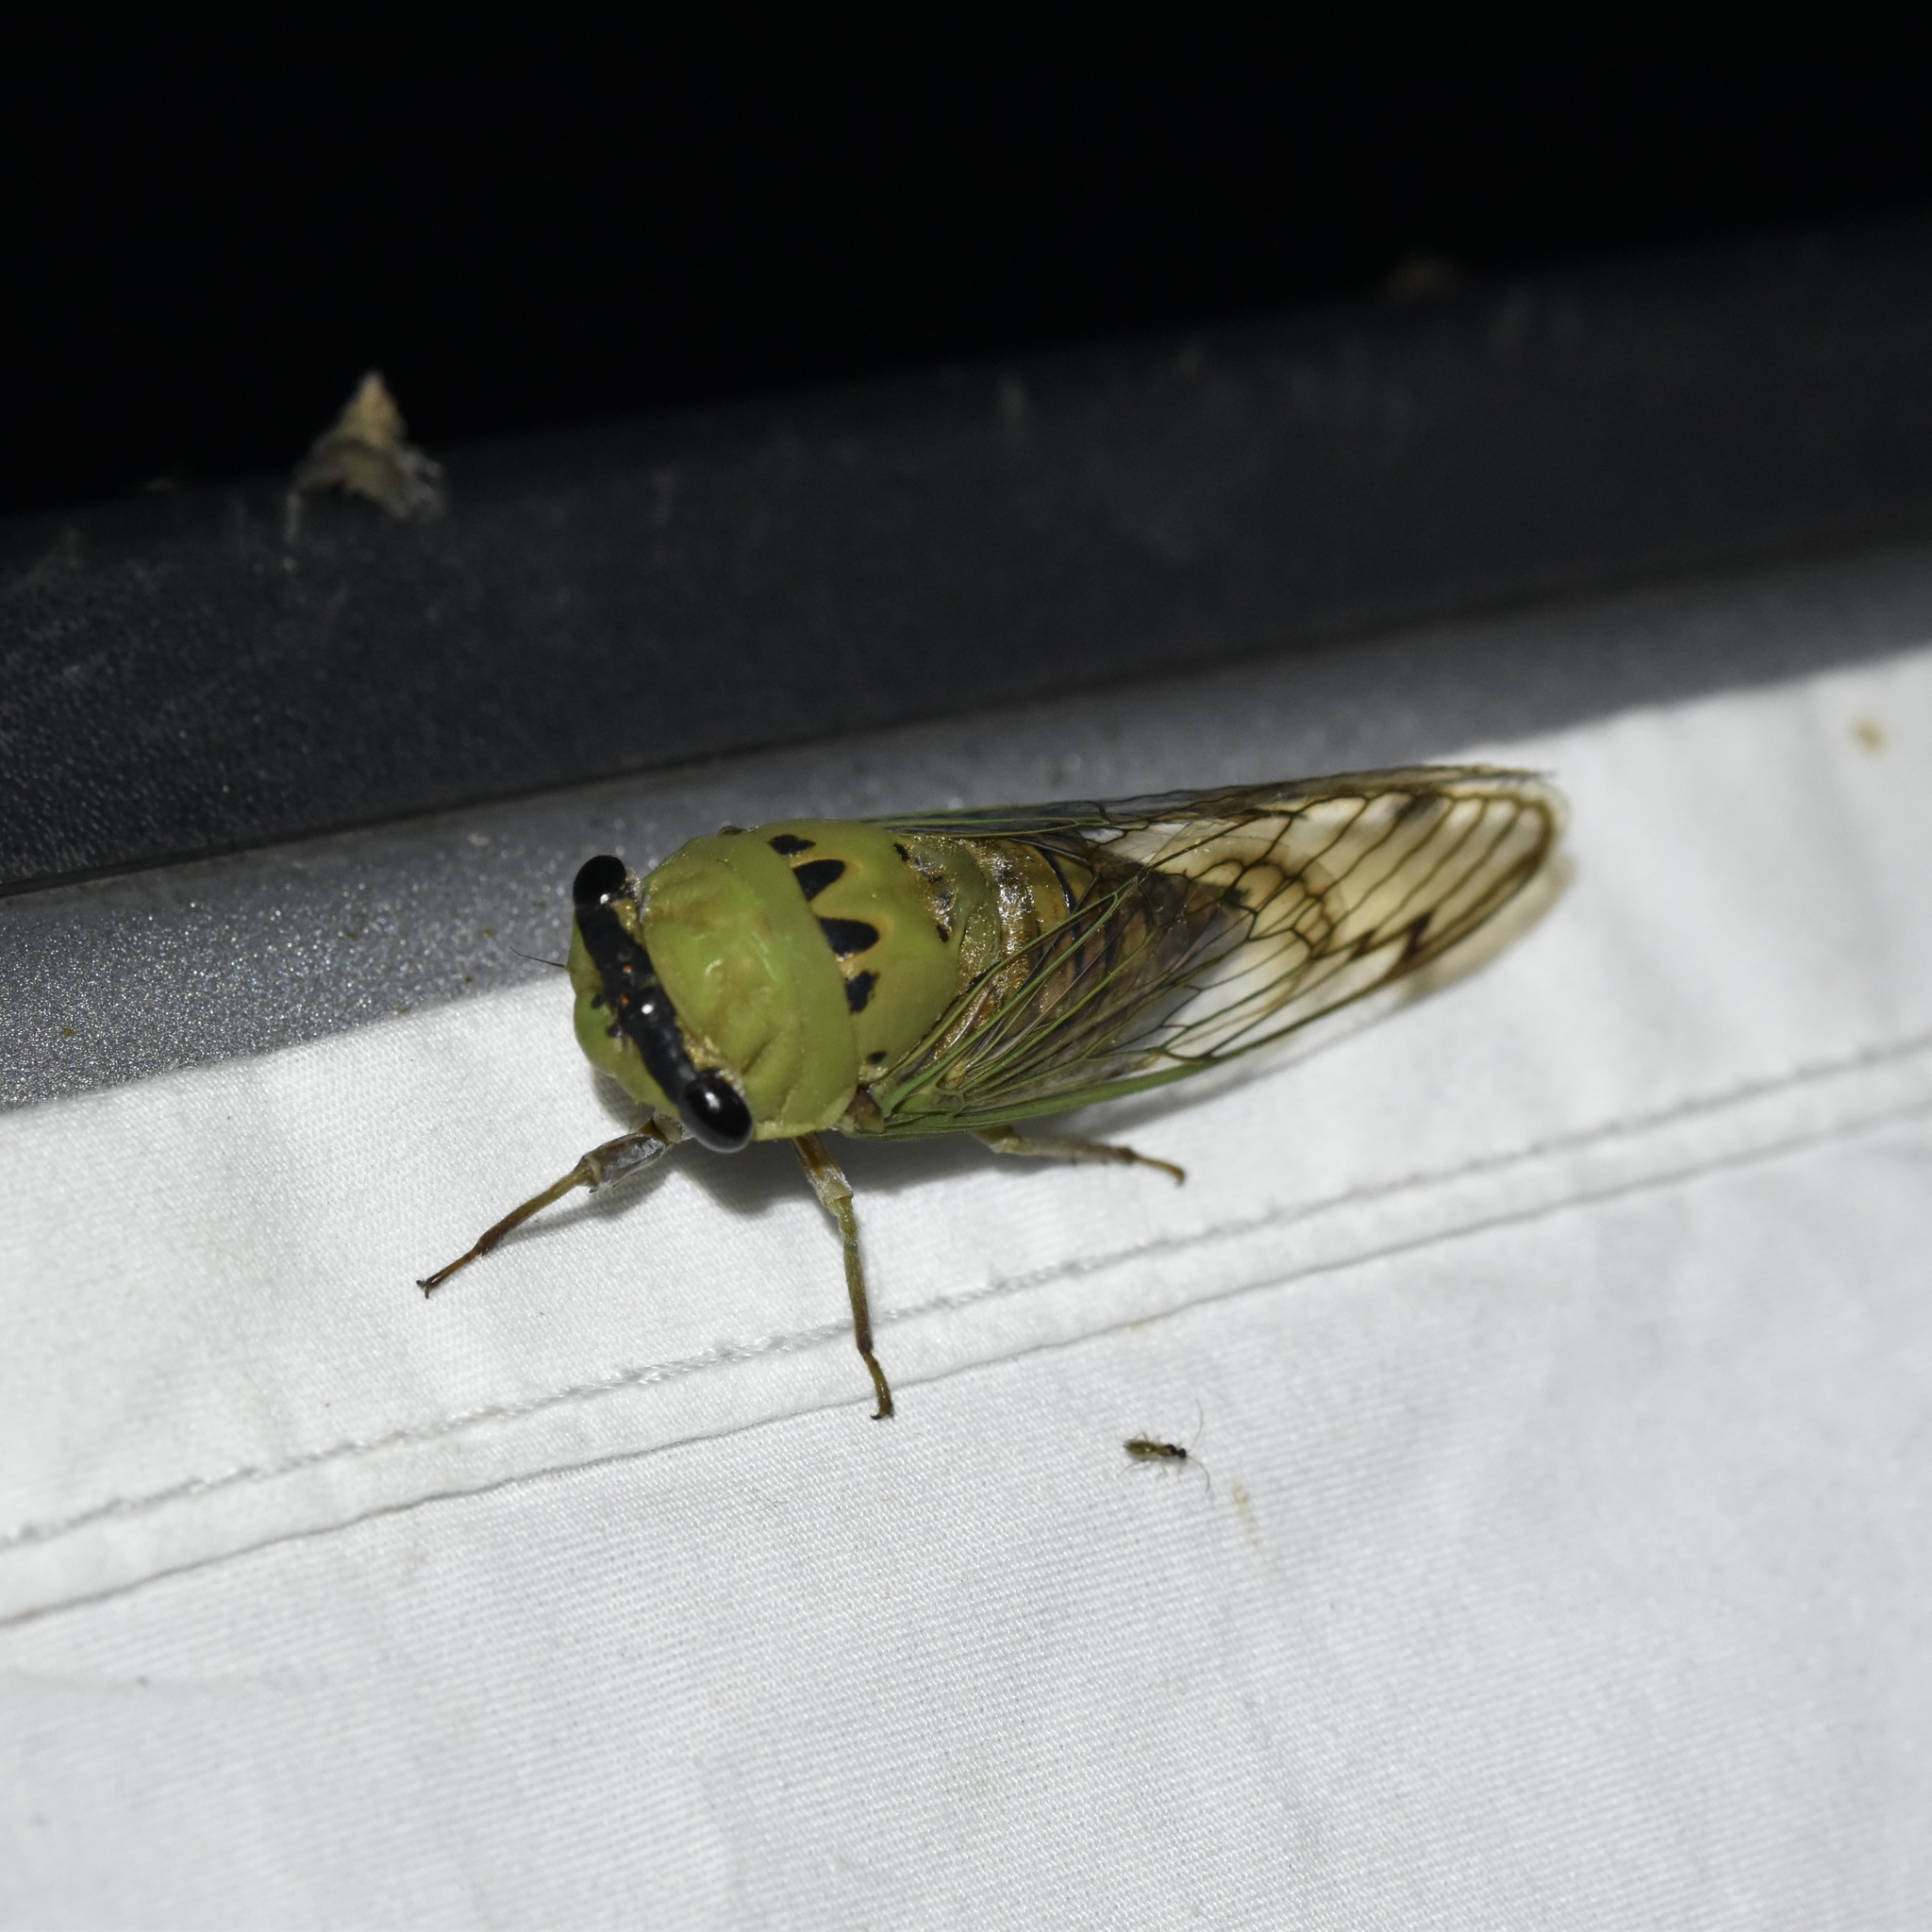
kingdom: Animalia
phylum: Arthropoda
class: Insecta
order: Hemiptera
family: Cicadidae
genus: Neotibicen
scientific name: Neotibicen superbus
